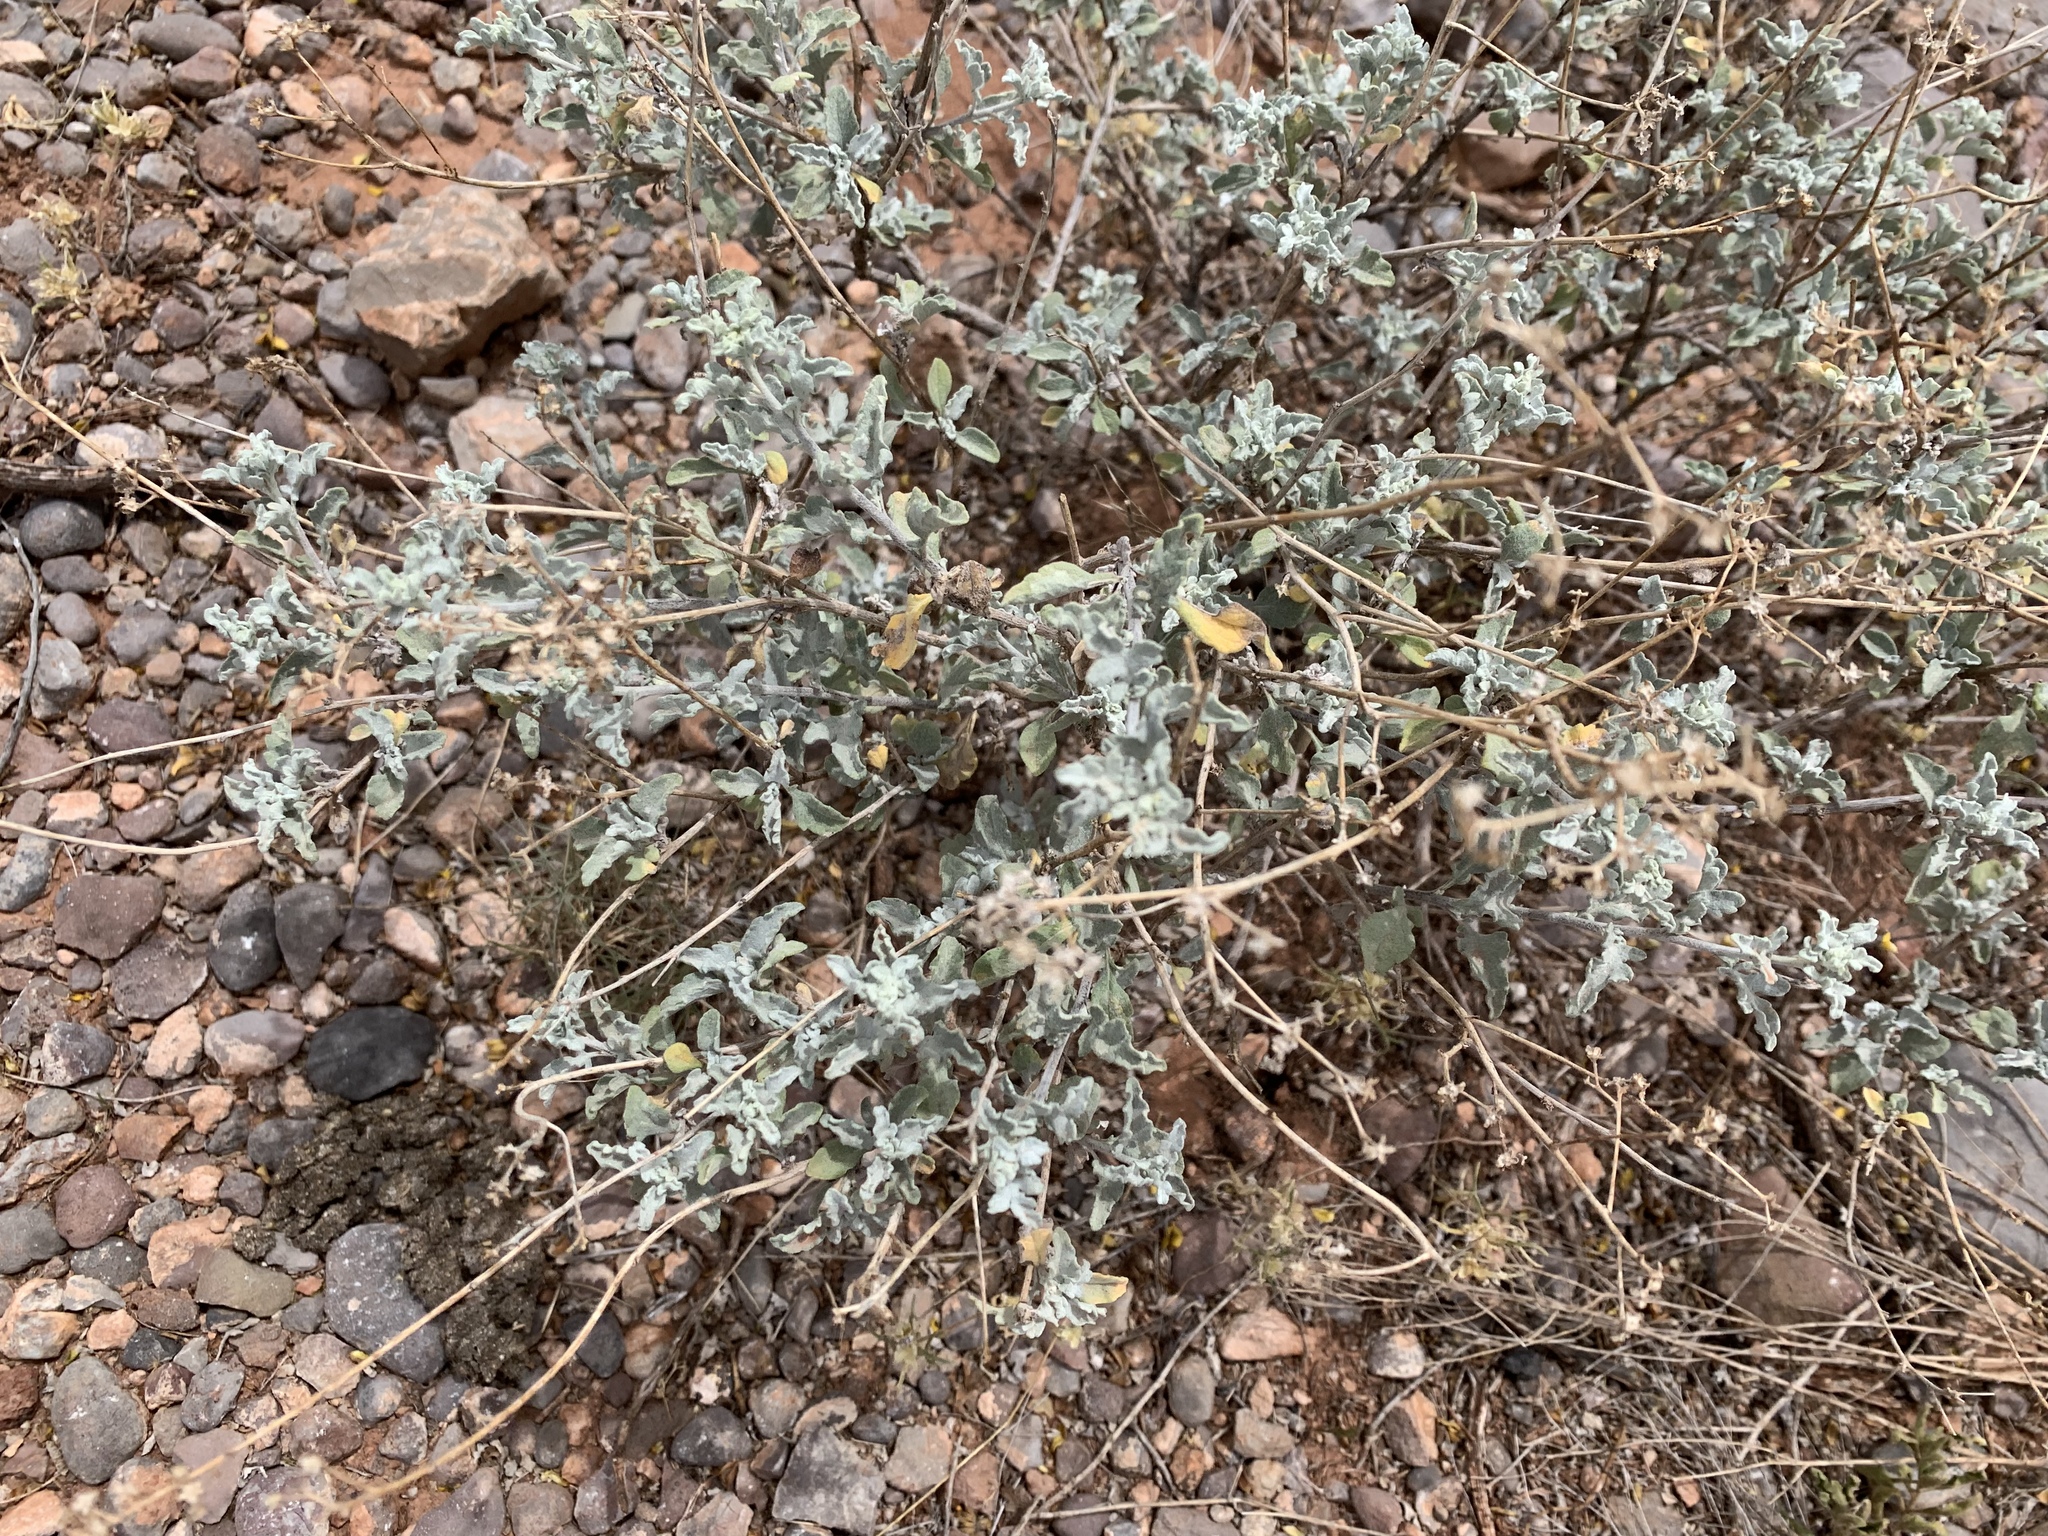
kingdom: Plantae
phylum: Tracheophyta
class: Magnoliopsida
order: Asterales
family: Asteraceae
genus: Parthenium
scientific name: Parthenium incanum
